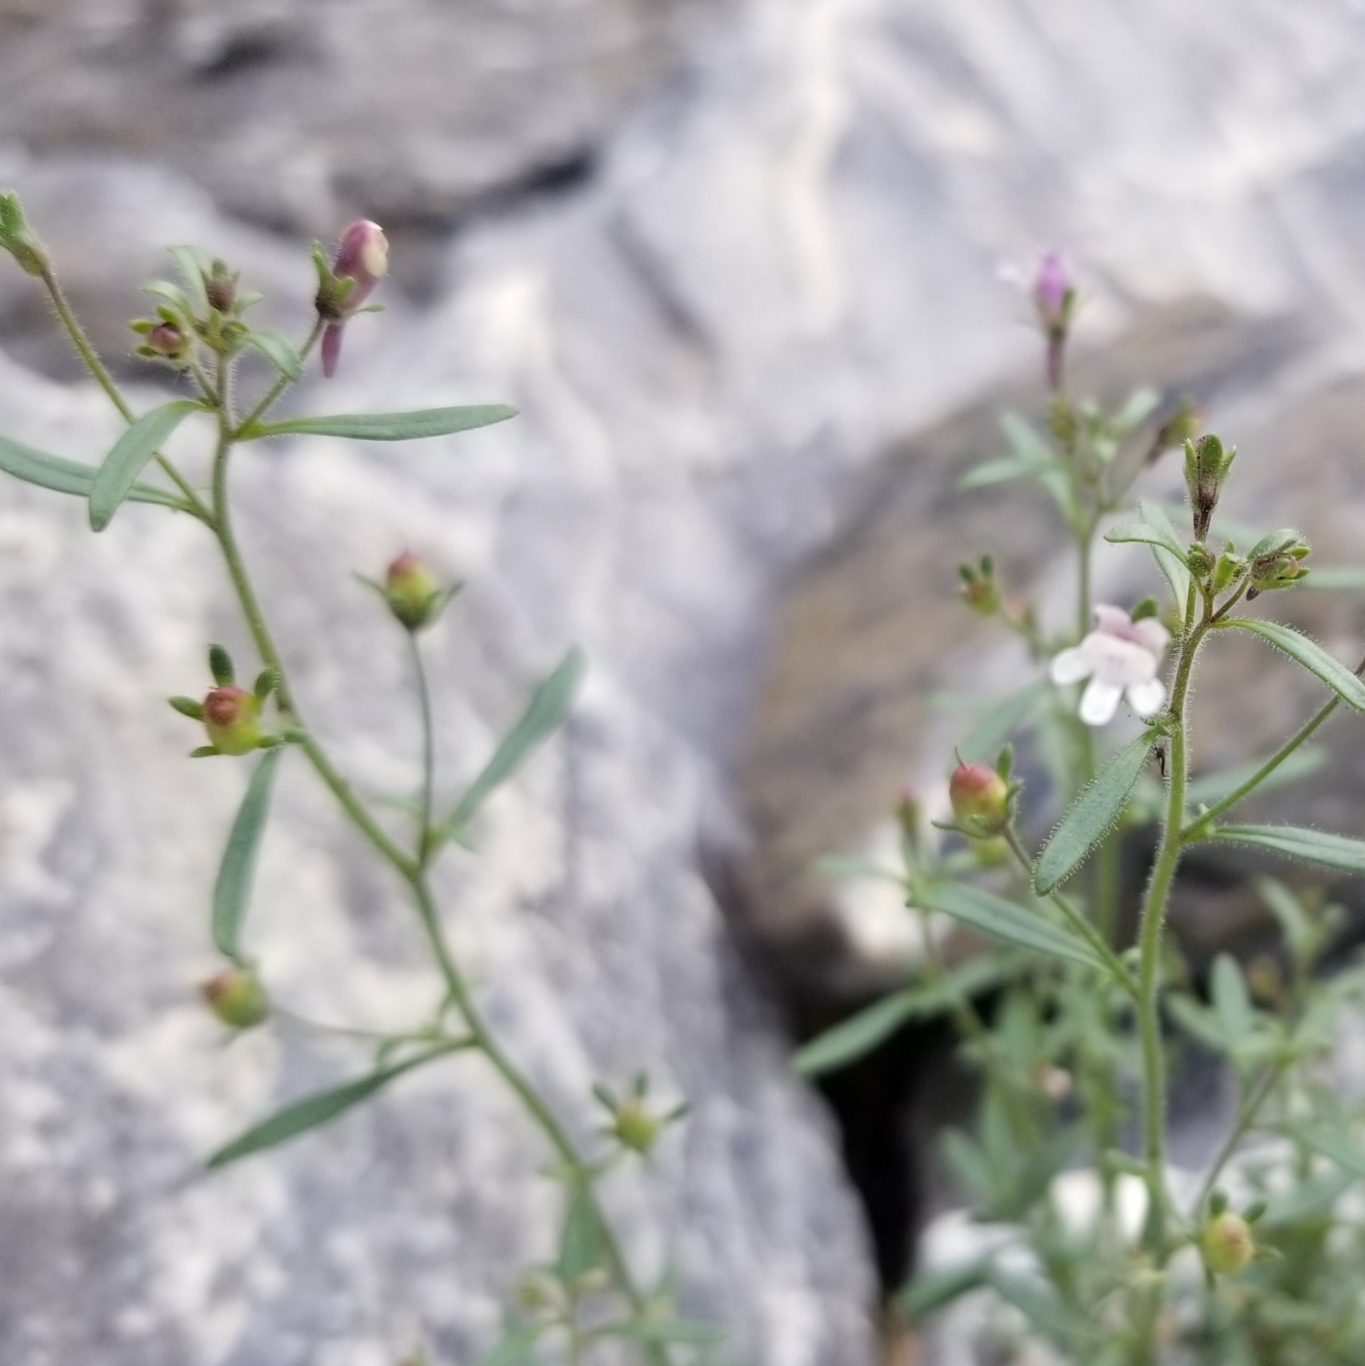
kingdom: Plantae
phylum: Tracheophyta
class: Magnoliopsida
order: Lamiales
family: Plantaginaceae
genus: Chaenorhinum
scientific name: Chaenorhinum minus
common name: Dwarf snapdragon
